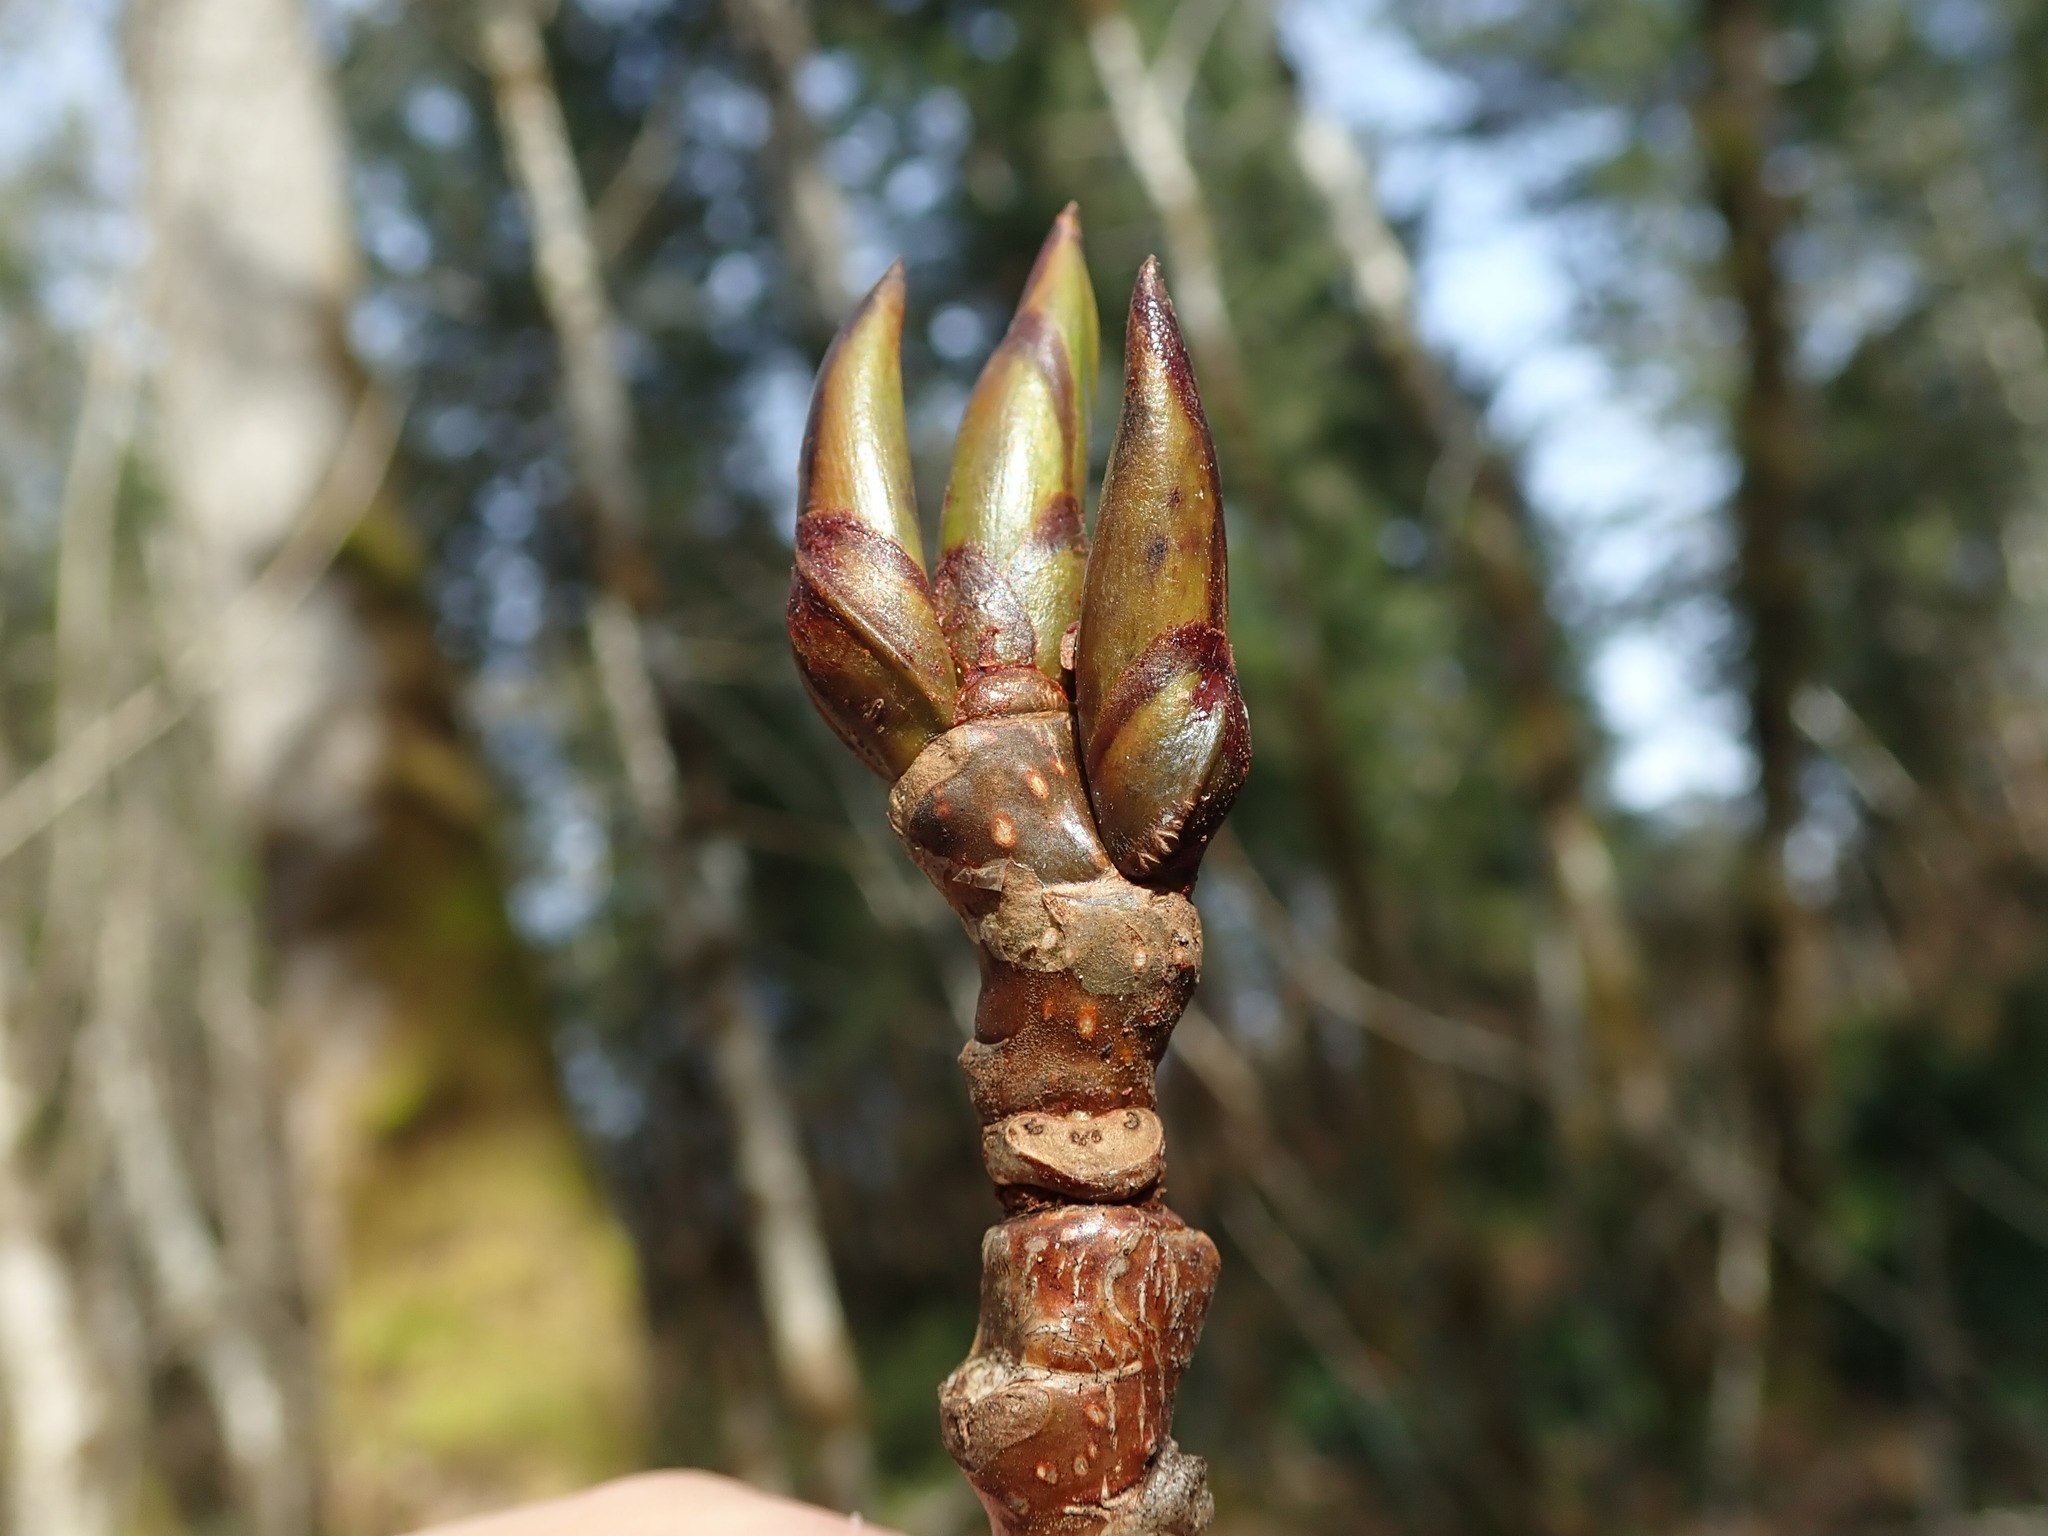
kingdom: Plantae
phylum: Tracheophyta
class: Magnoliopsida
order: Malpighiales
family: Salicaceae
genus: Populus
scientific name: Populus trichocarpa
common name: Black cottonwood
